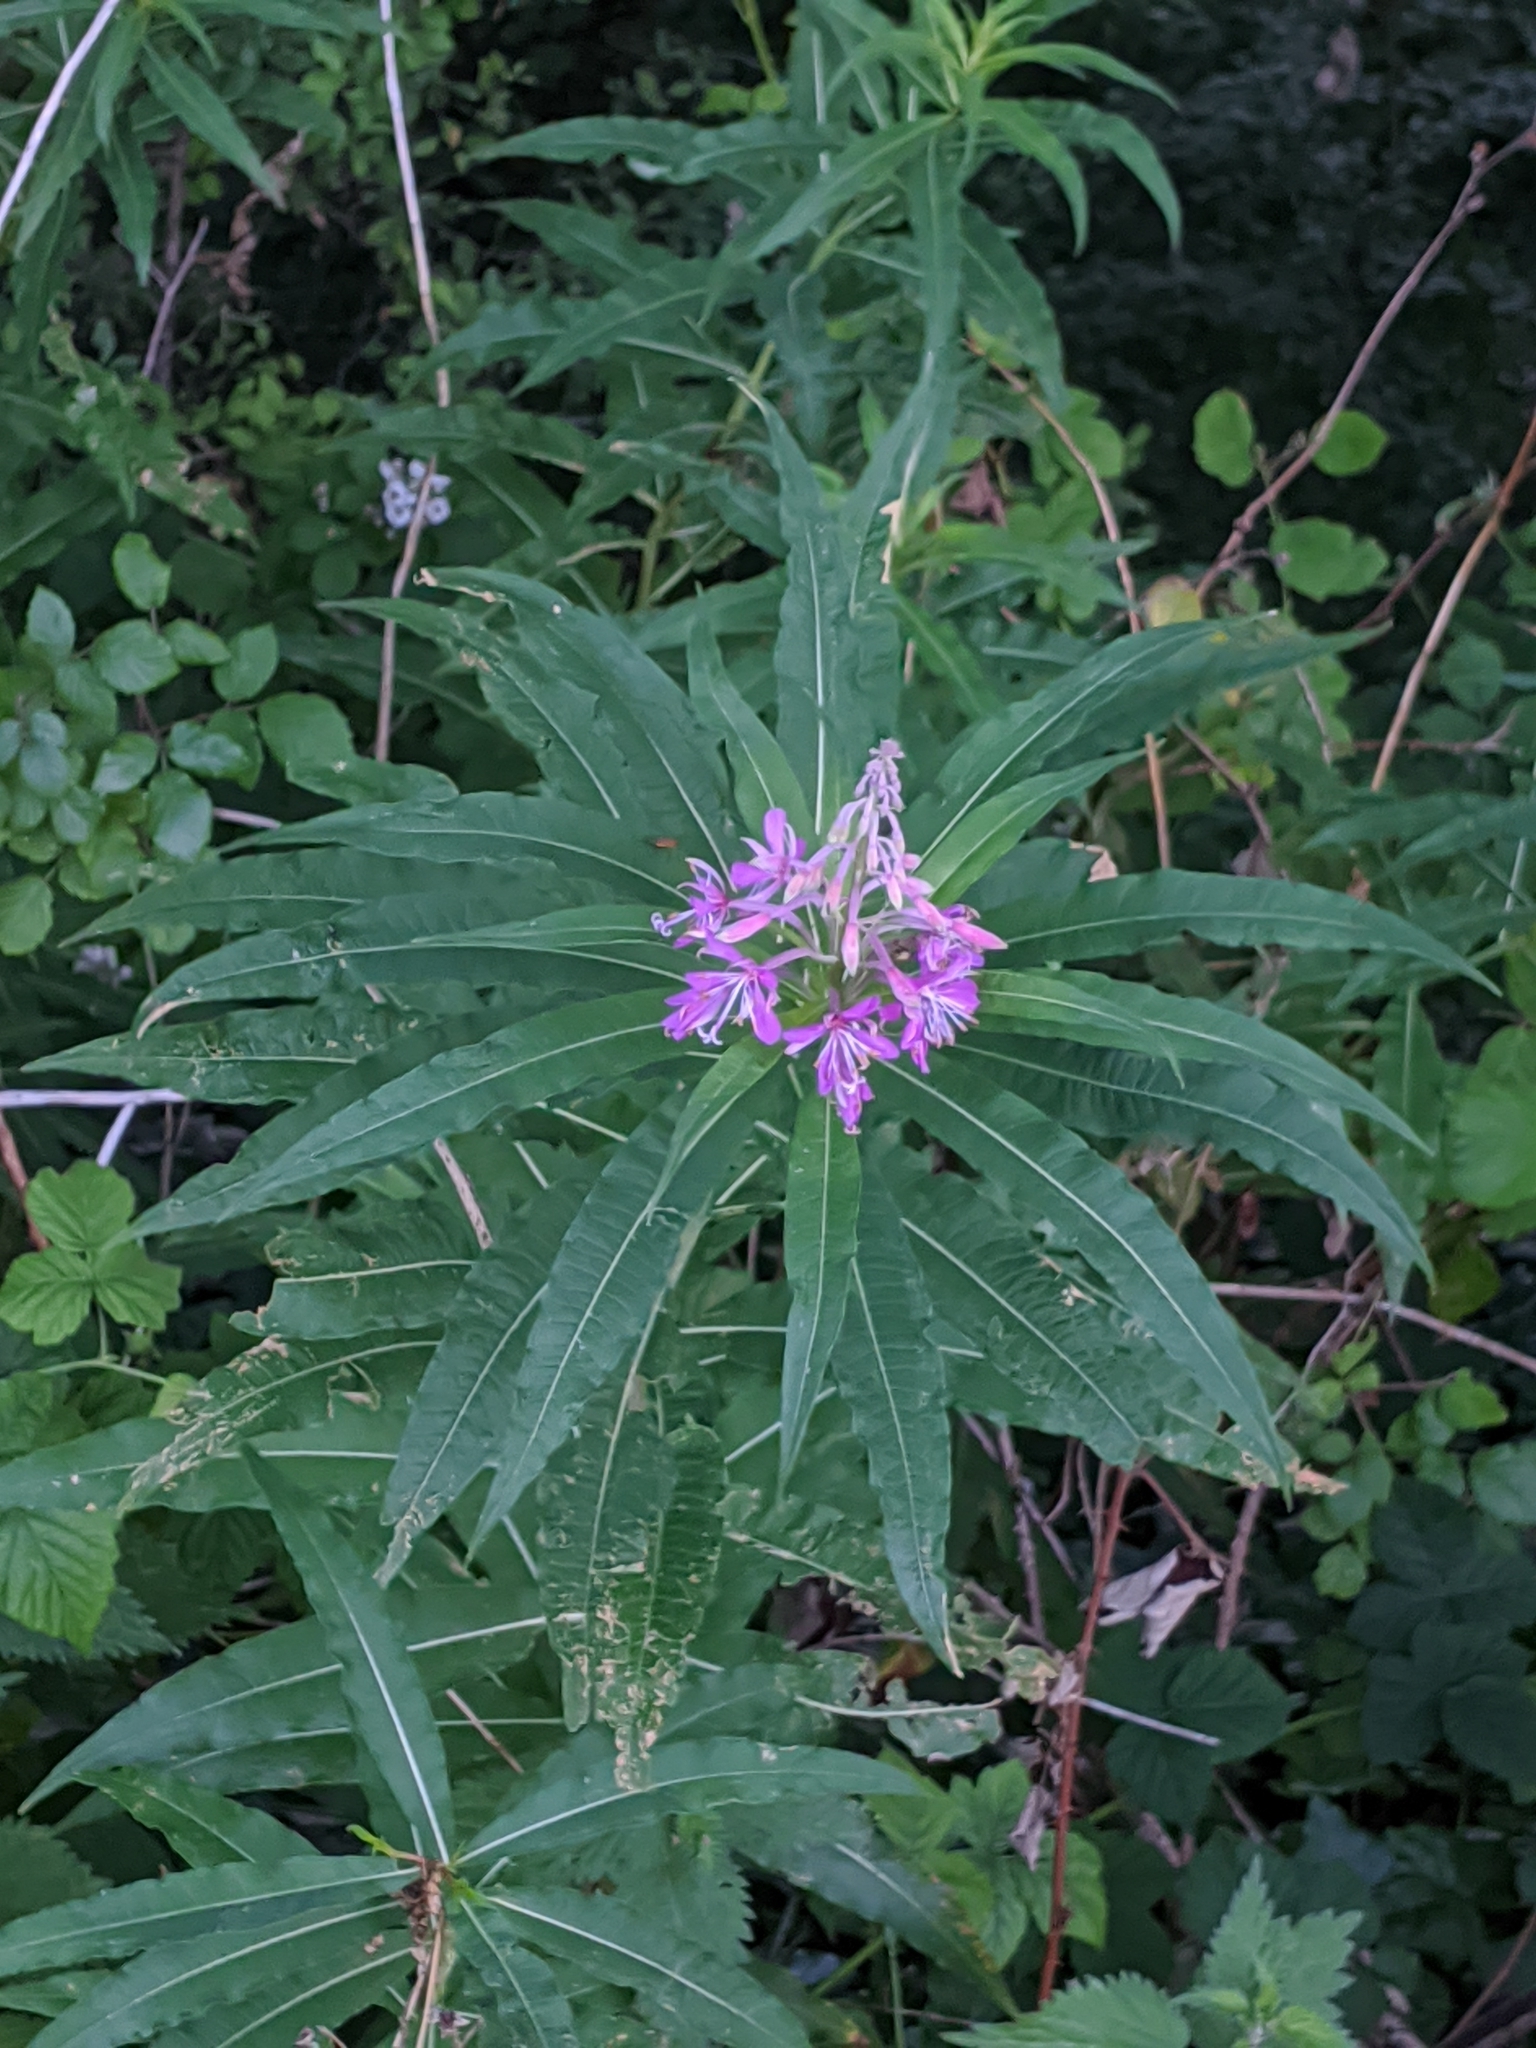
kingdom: Plantae
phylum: Tracheophyta
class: Magnoliopsida
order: Myrtales
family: Onagraceae
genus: Chamaenerion
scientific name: Chamaenerion angustifolium
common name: Fireweed
